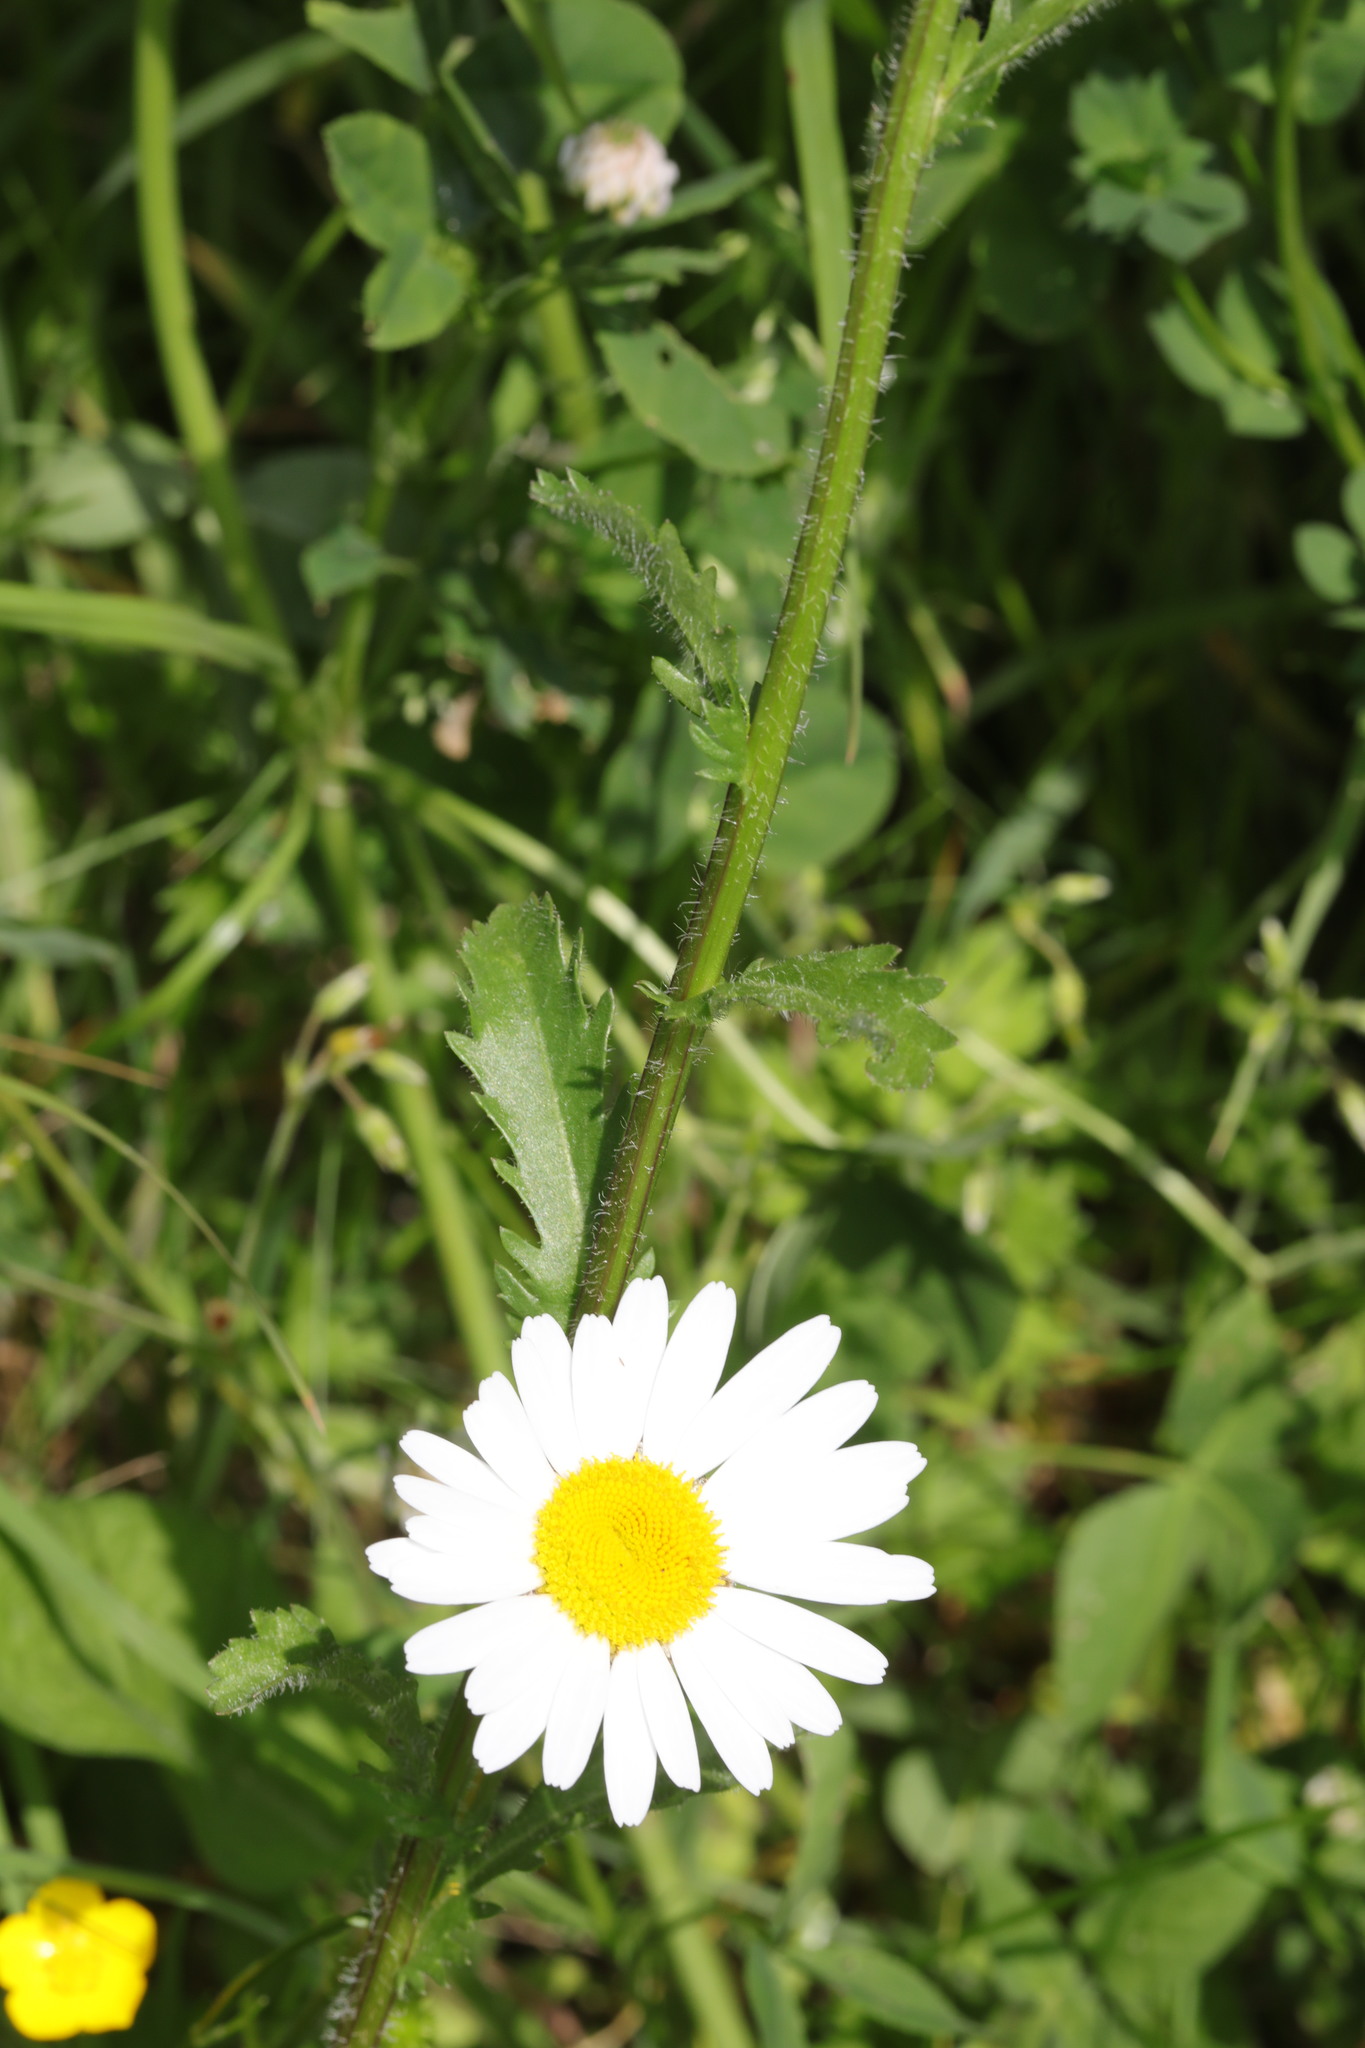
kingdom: Plantae
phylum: Tracheophyta
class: Magnoliopsida
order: Asterales
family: Asteraceae
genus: Leucanthemum
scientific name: Leucanthemum vulgare
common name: Oxeye daisy
